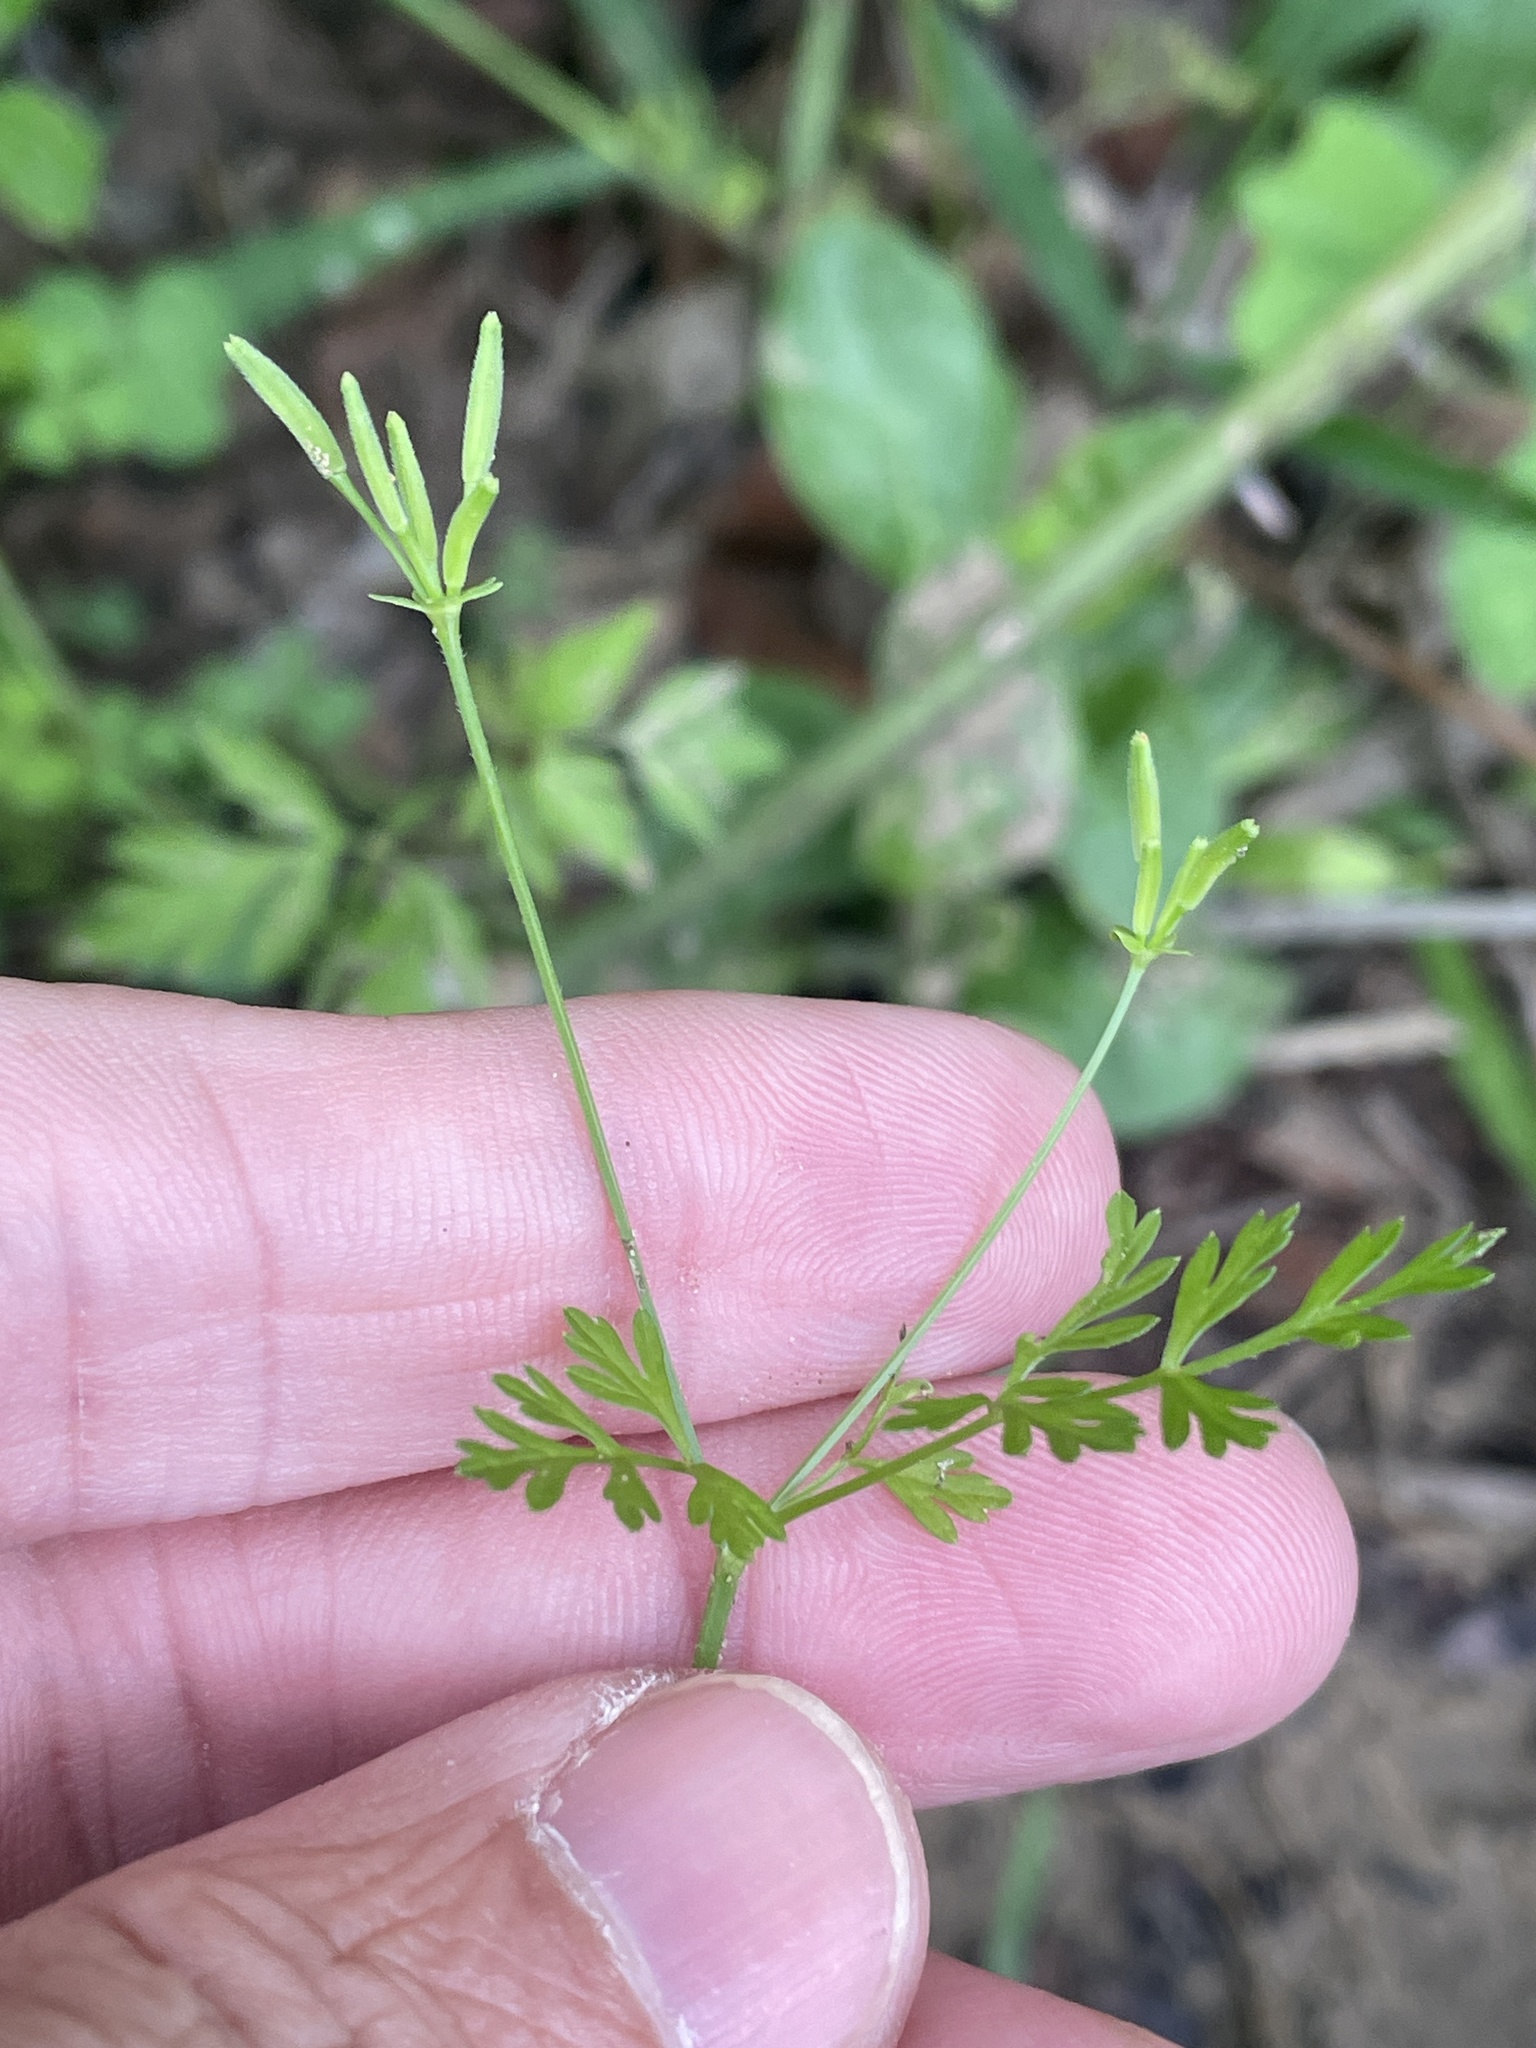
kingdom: Plantae
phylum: Tracheophyta
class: Magnoliopsida
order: Apiales
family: Apiaceae
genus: Chaerophyllum
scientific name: Chaerophyllum tainturieri
